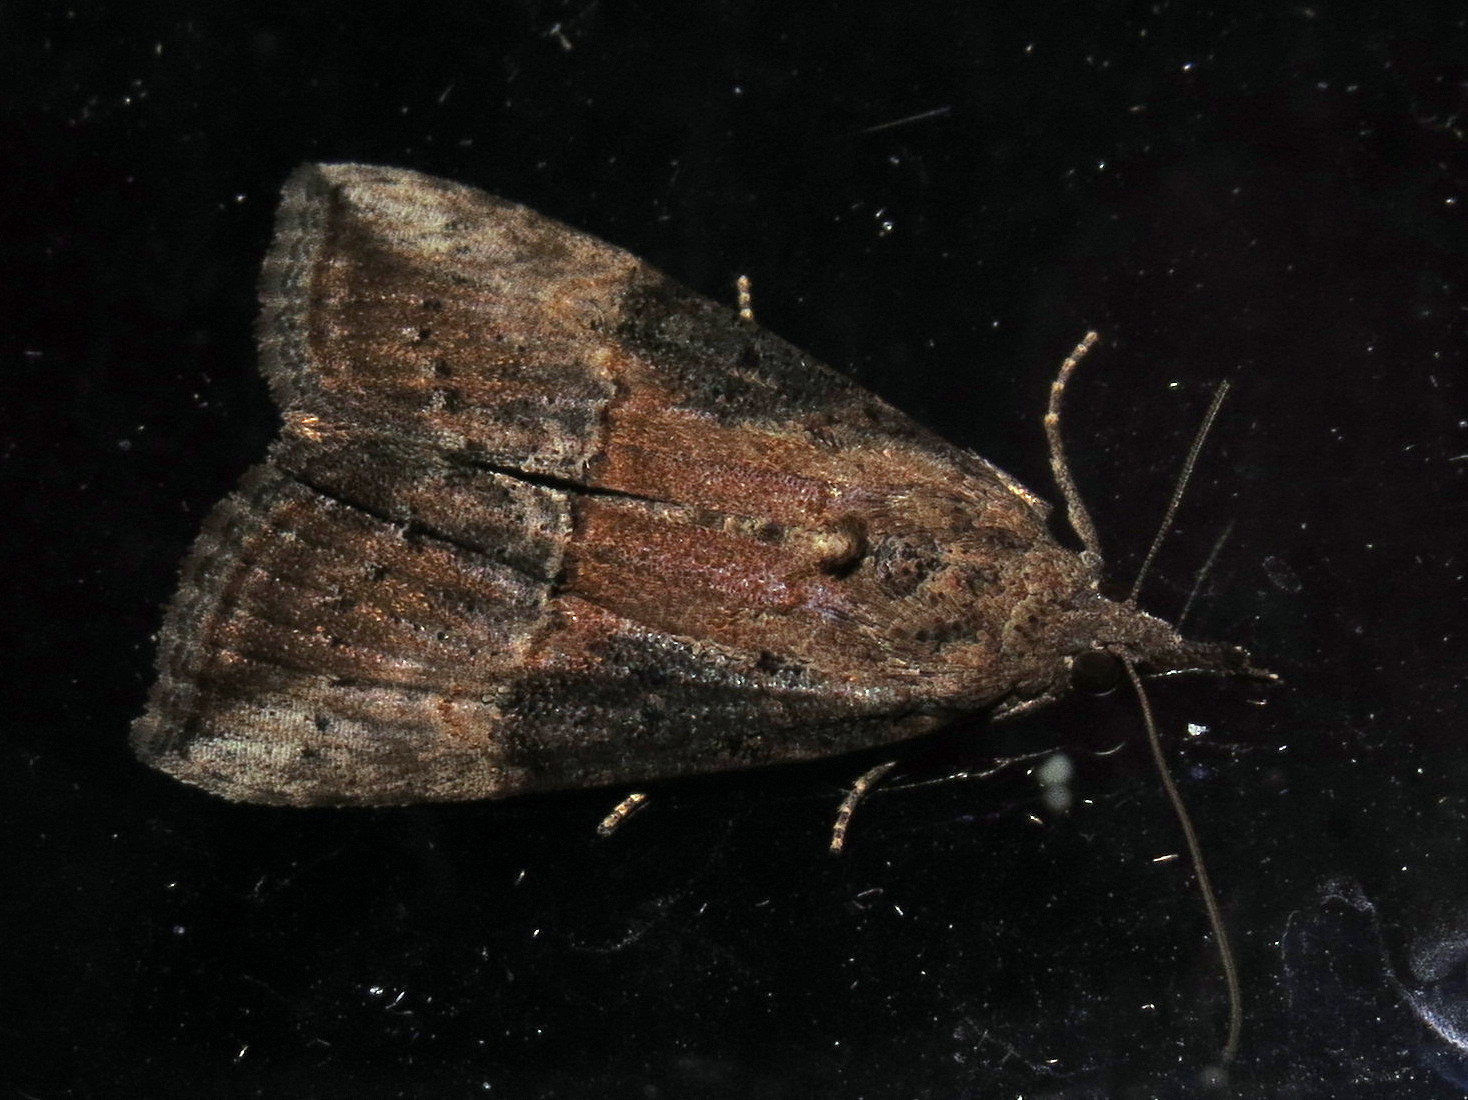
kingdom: Animalia
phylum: Arthropoda
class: Insecta
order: Lepidoptera
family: Erebidae
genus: Hypena
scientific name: Hypena scabra
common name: Green cloverworm
